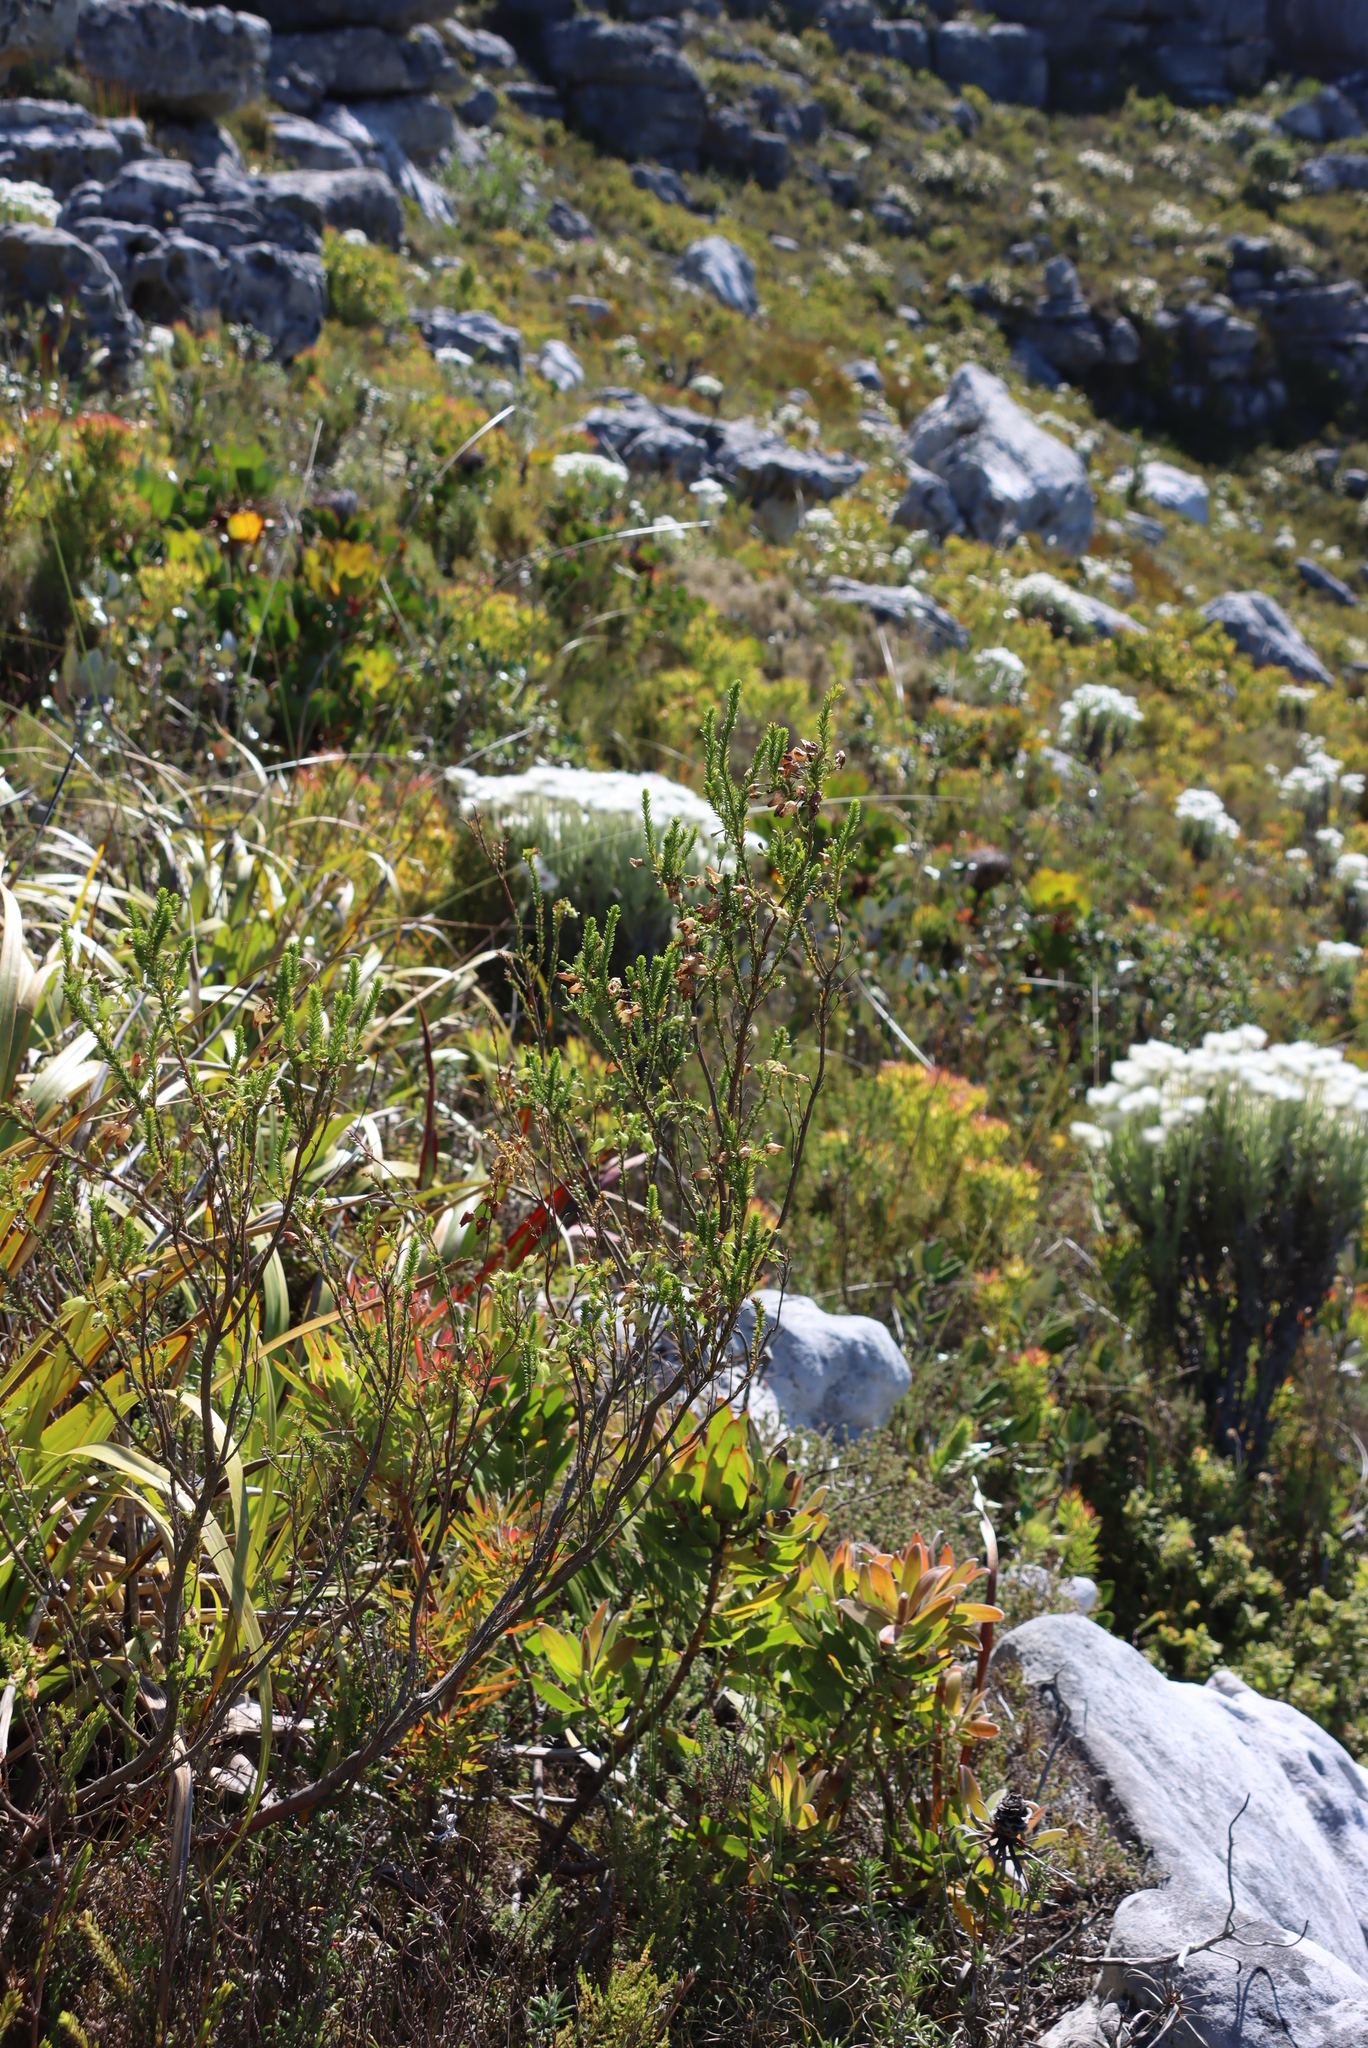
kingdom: Plantae
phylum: Tracheophyta
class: Magnoliopsida
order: Ericales
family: Ericaceae
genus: Erica
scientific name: Erica urna-viridis
